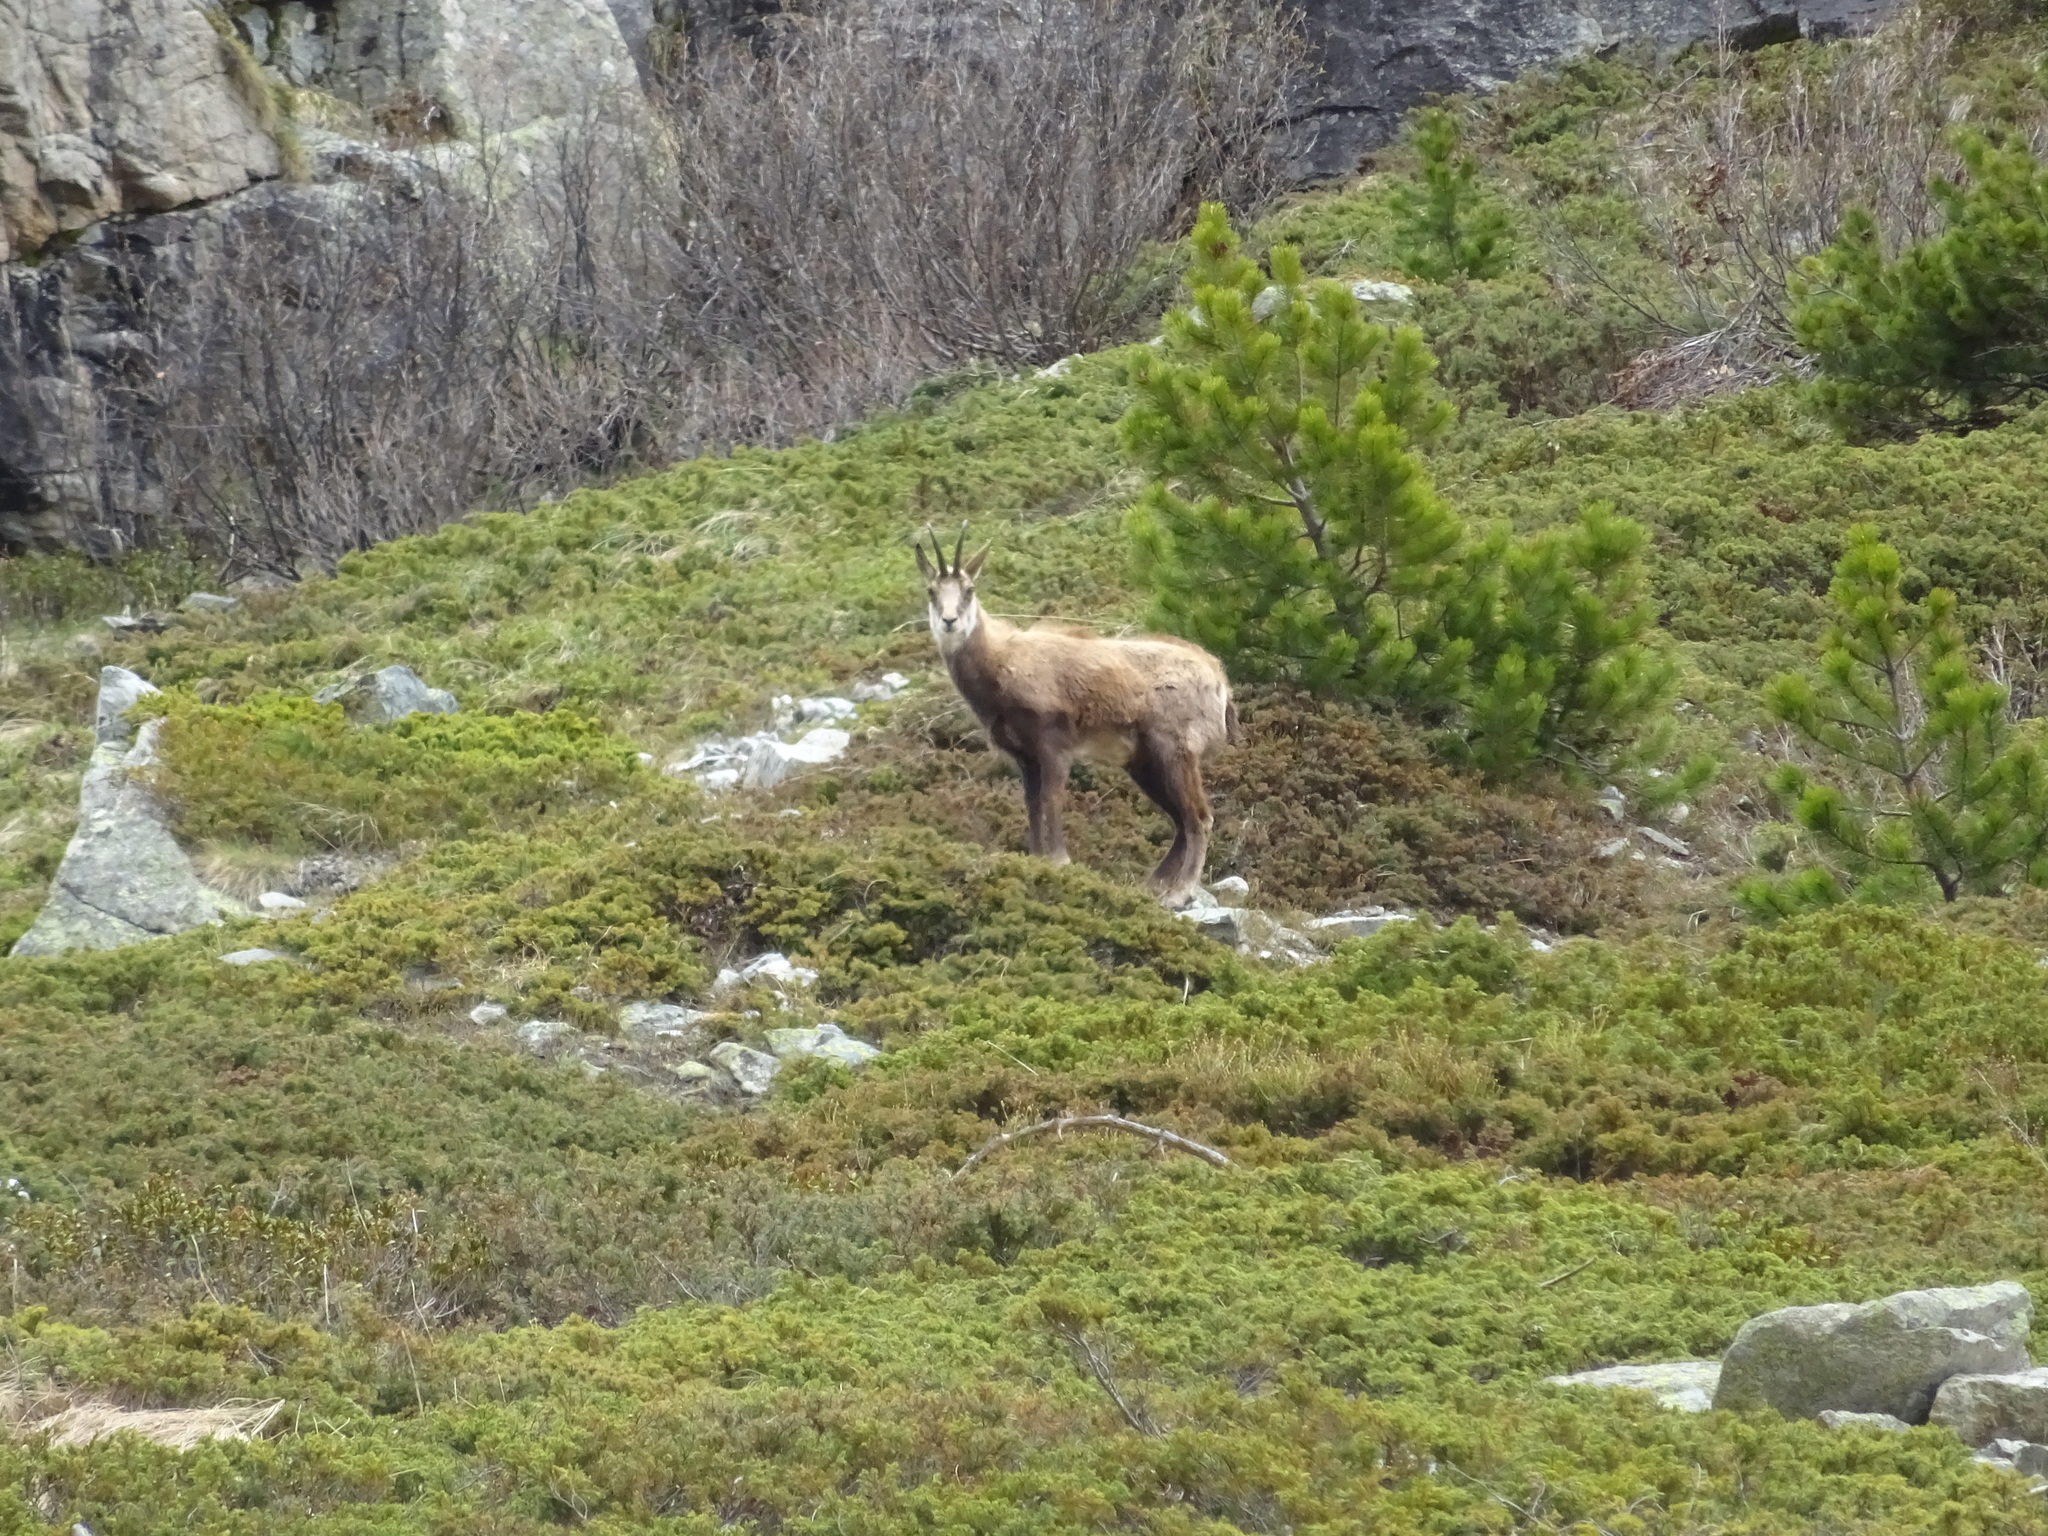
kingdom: Animalia
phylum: Chordata
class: Mammalia
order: Artiodactyla
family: Bovidae
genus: Rupicapra
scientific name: Rupicapra rupicapra
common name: Chamois
